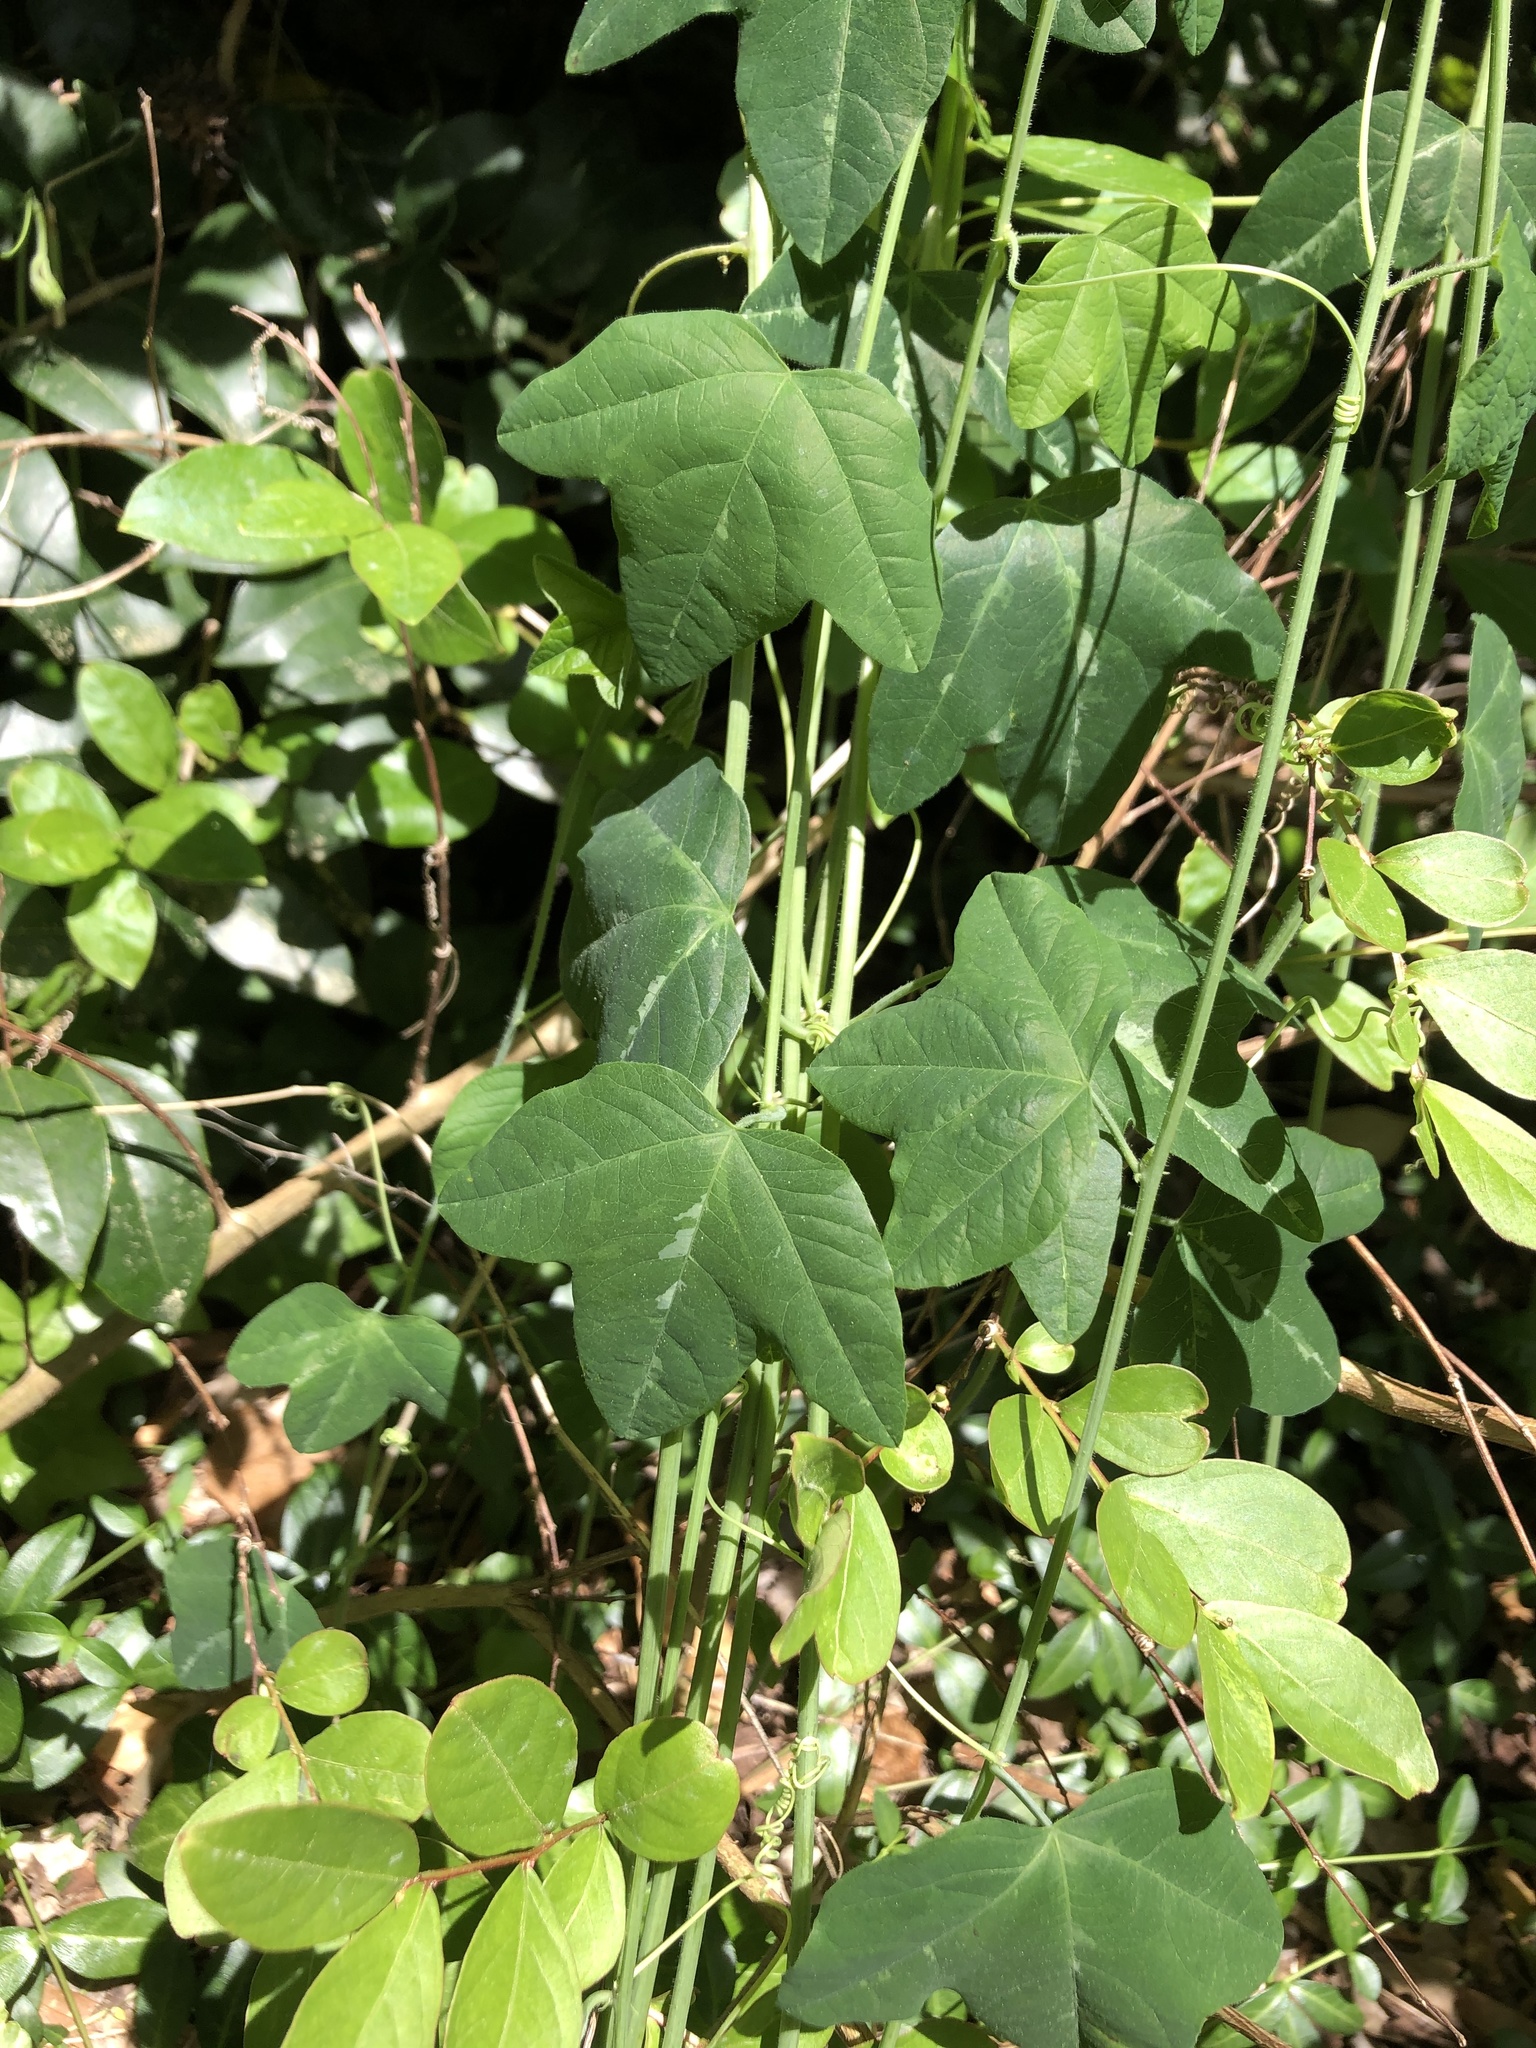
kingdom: Plantae
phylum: Tracheophyta
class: Magnoliopsida
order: Malpighiales
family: Passifloraceae
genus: Passiflora
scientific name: Passiflora lutea
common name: Yellow passionflower
